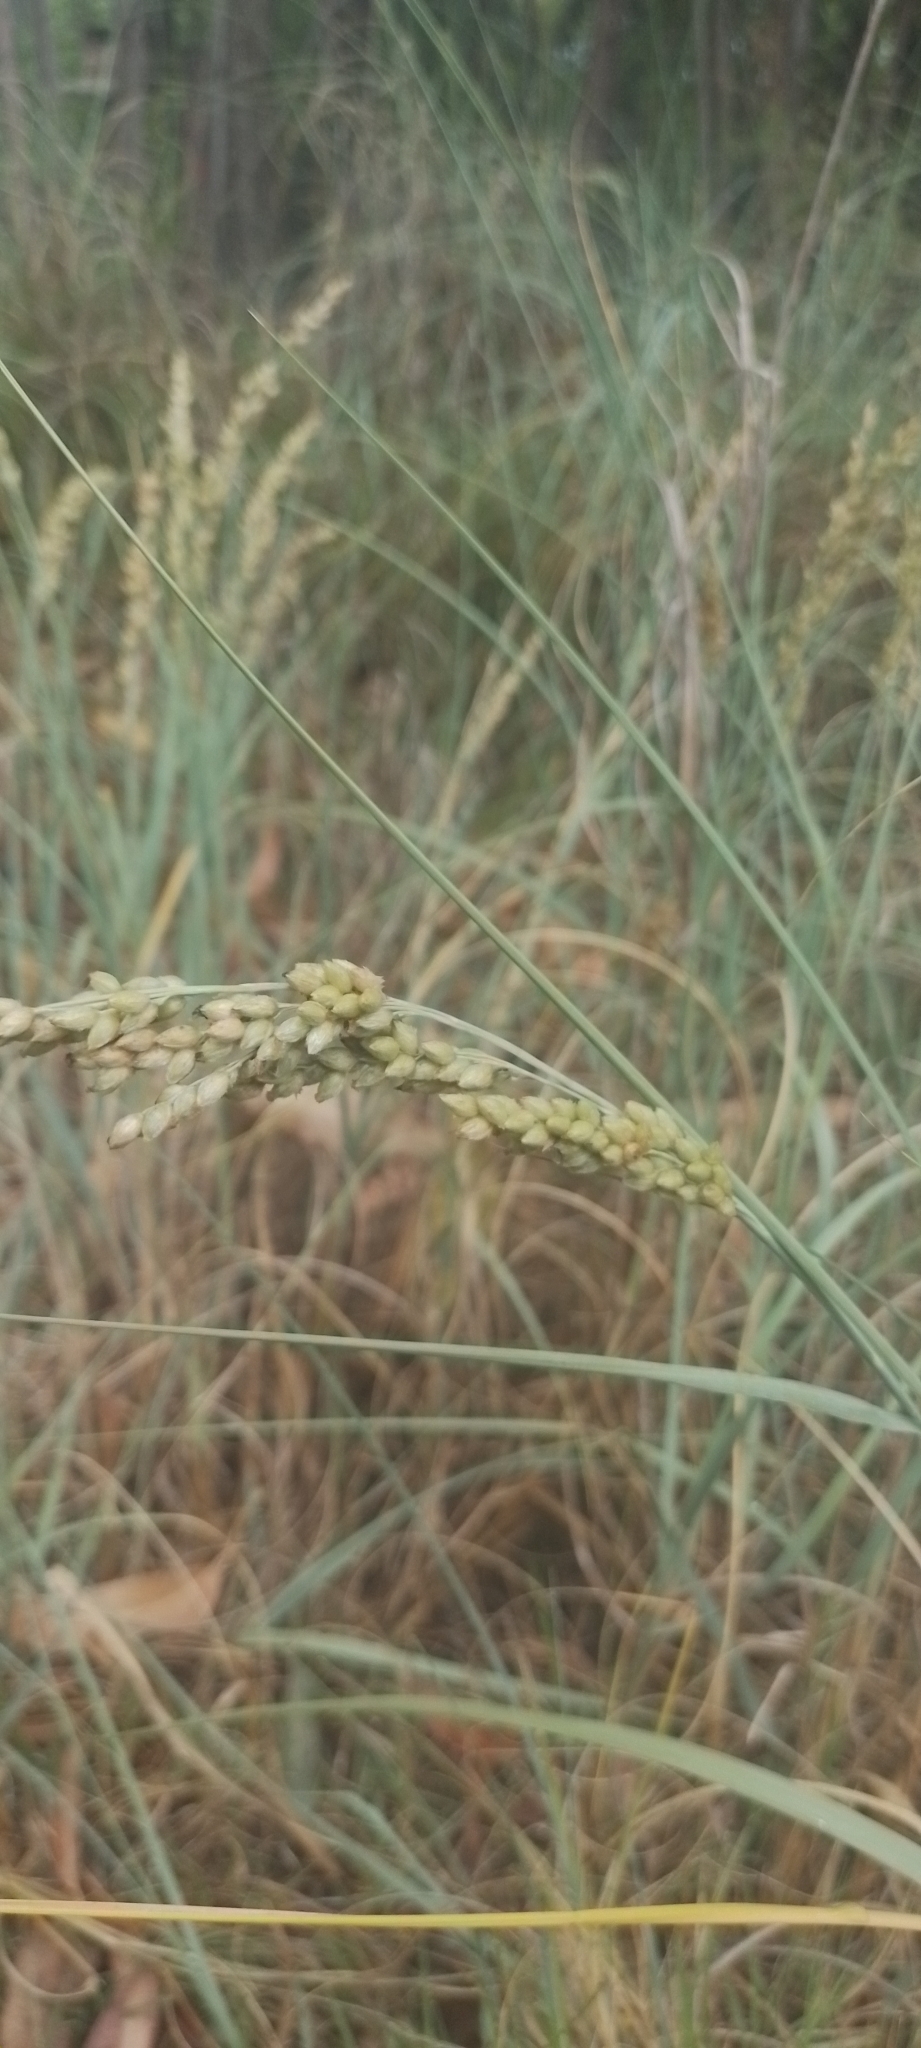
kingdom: Plantae
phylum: Tracheophyta
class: Liliopsida
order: Poales
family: Poaceae
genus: Panicum
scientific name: Panicum racemosum
